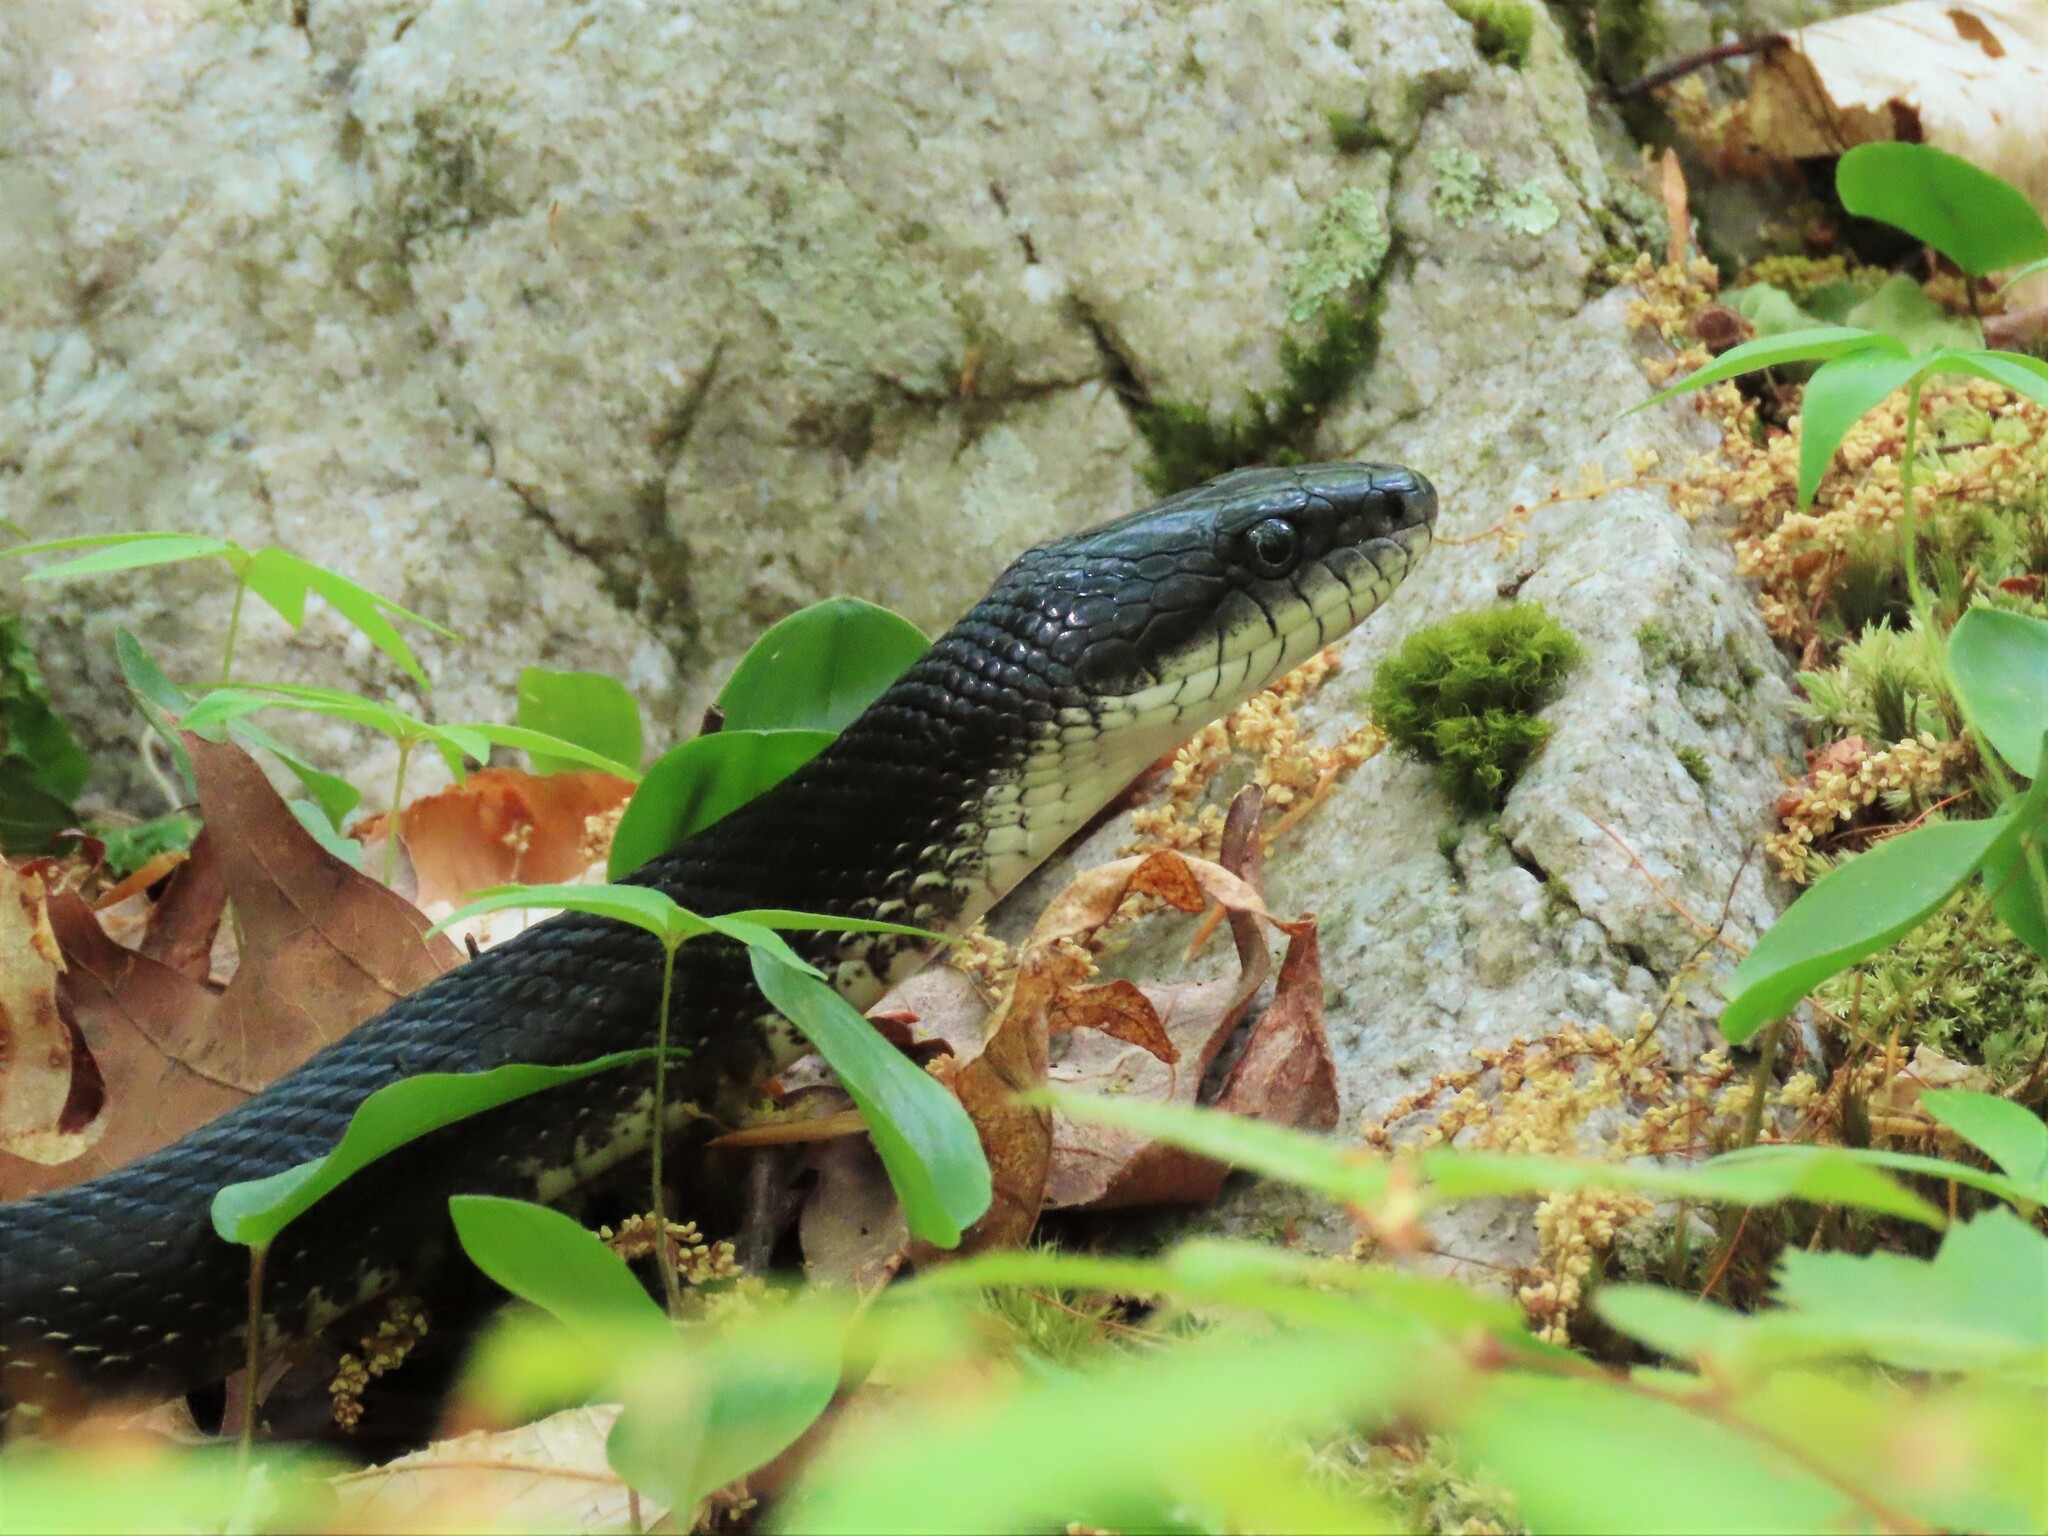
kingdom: Animalia
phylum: Chordata
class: Squamata
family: Colubridae
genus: Pantherophis
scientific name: Pantherophis alleghaniensis
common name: Eastern rat snake
